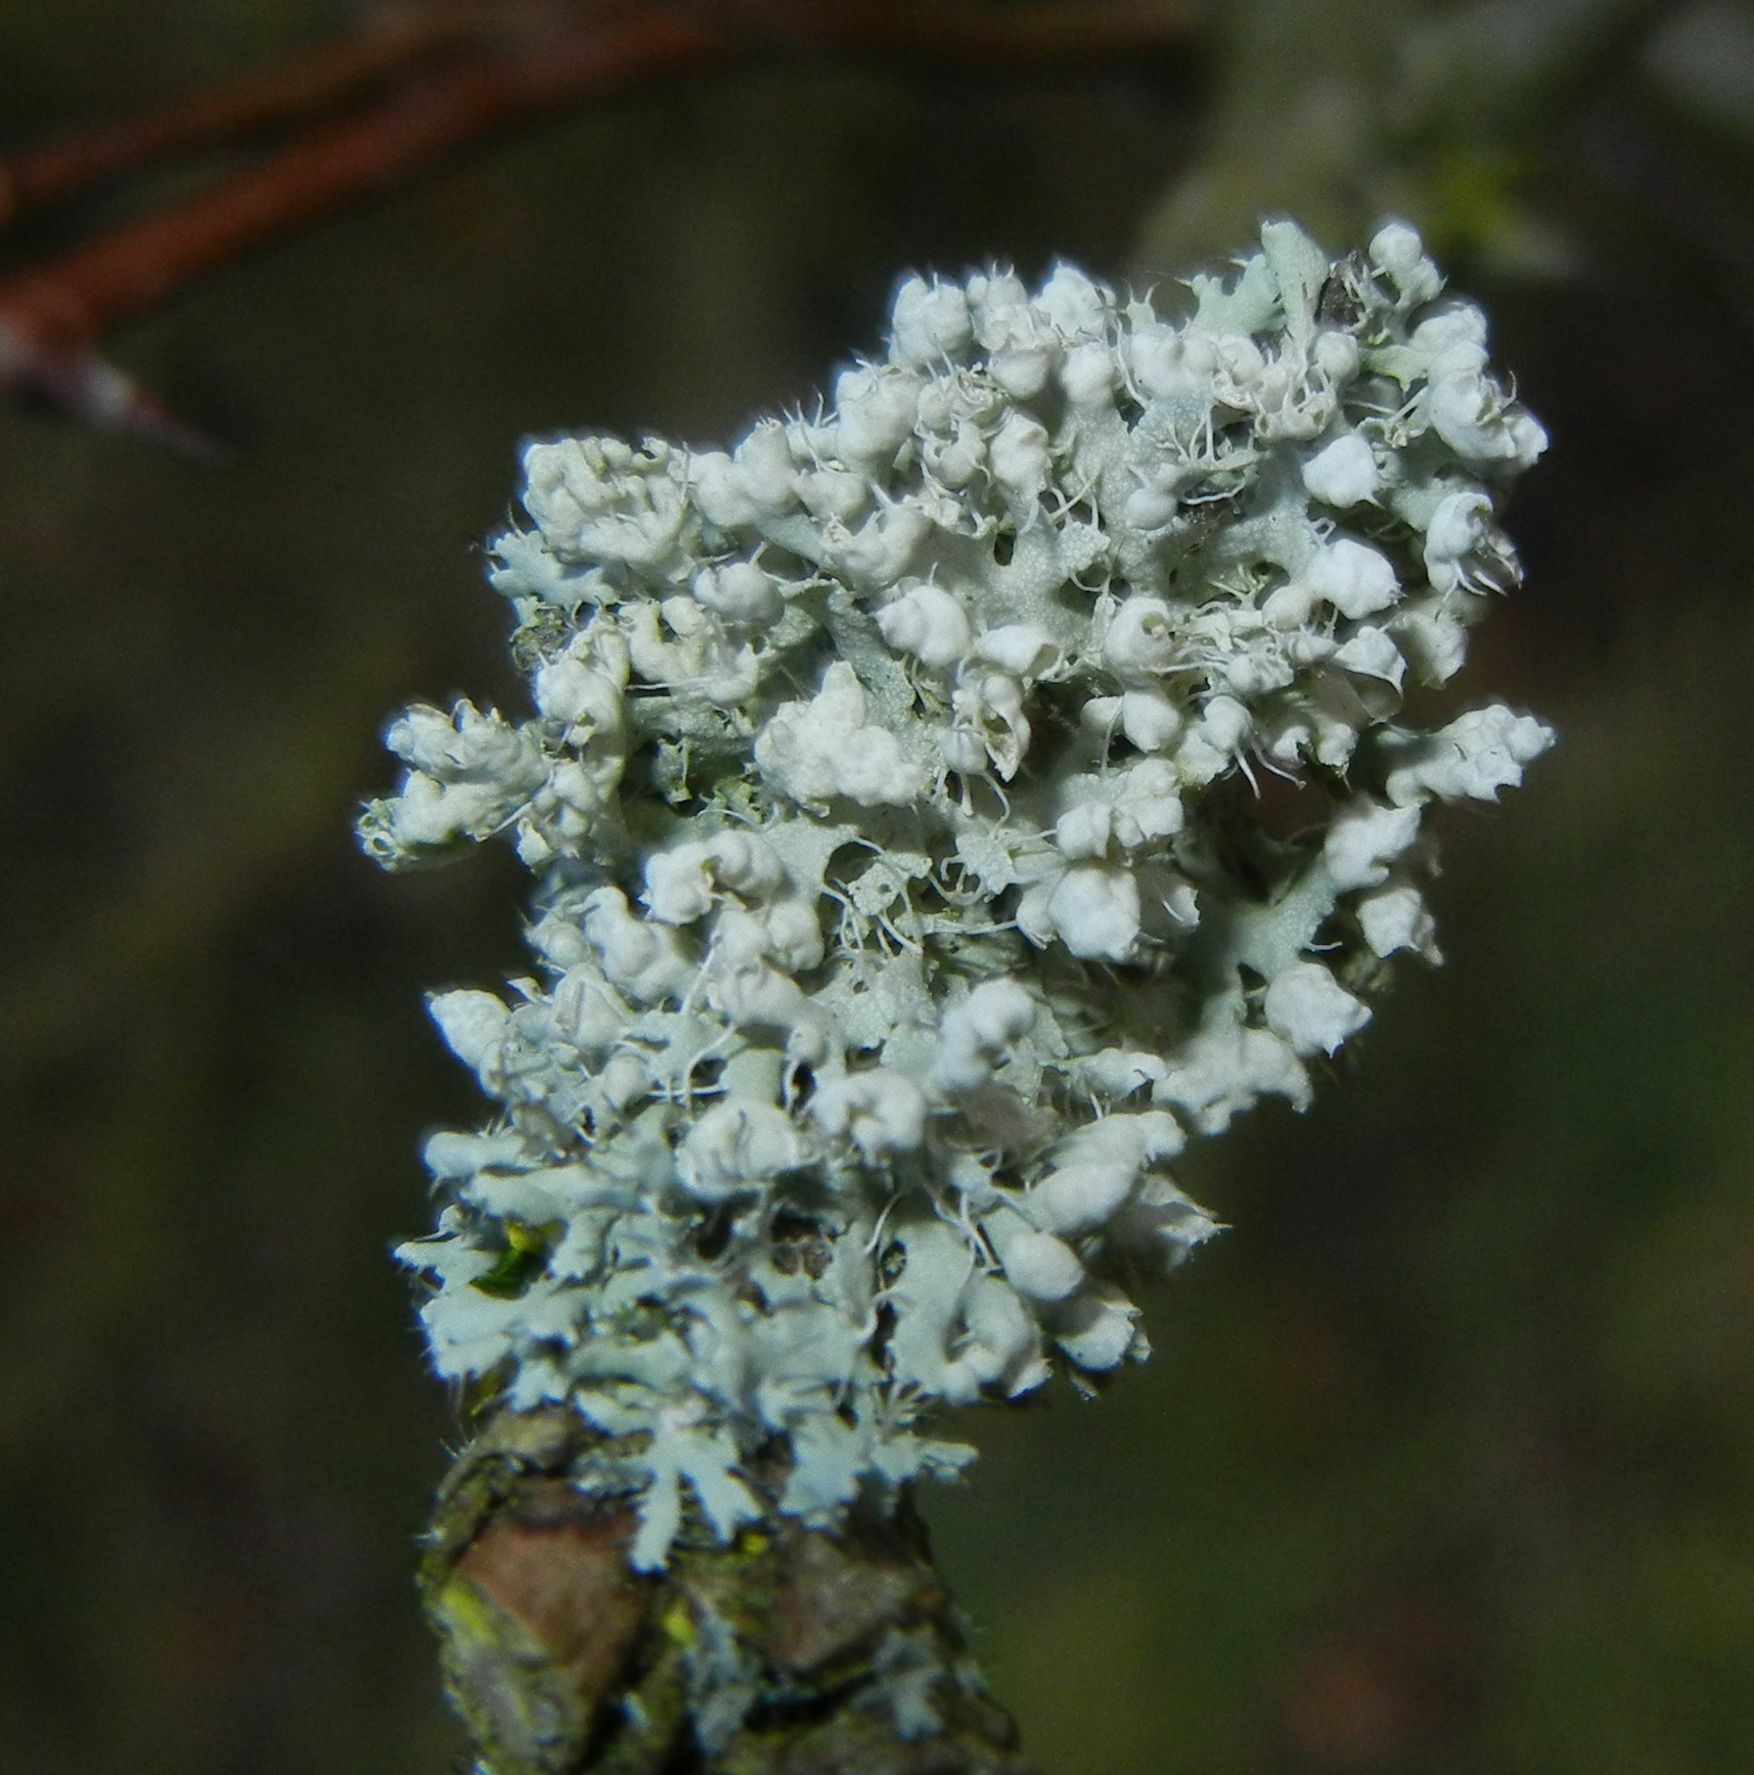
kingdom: Fungi
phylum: Ascomycota
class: Lecanoromycetes
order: Caliciales
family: Physciaceae
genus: Physcia
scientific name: Physcia adscendens
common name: Hooded rosette lichen
